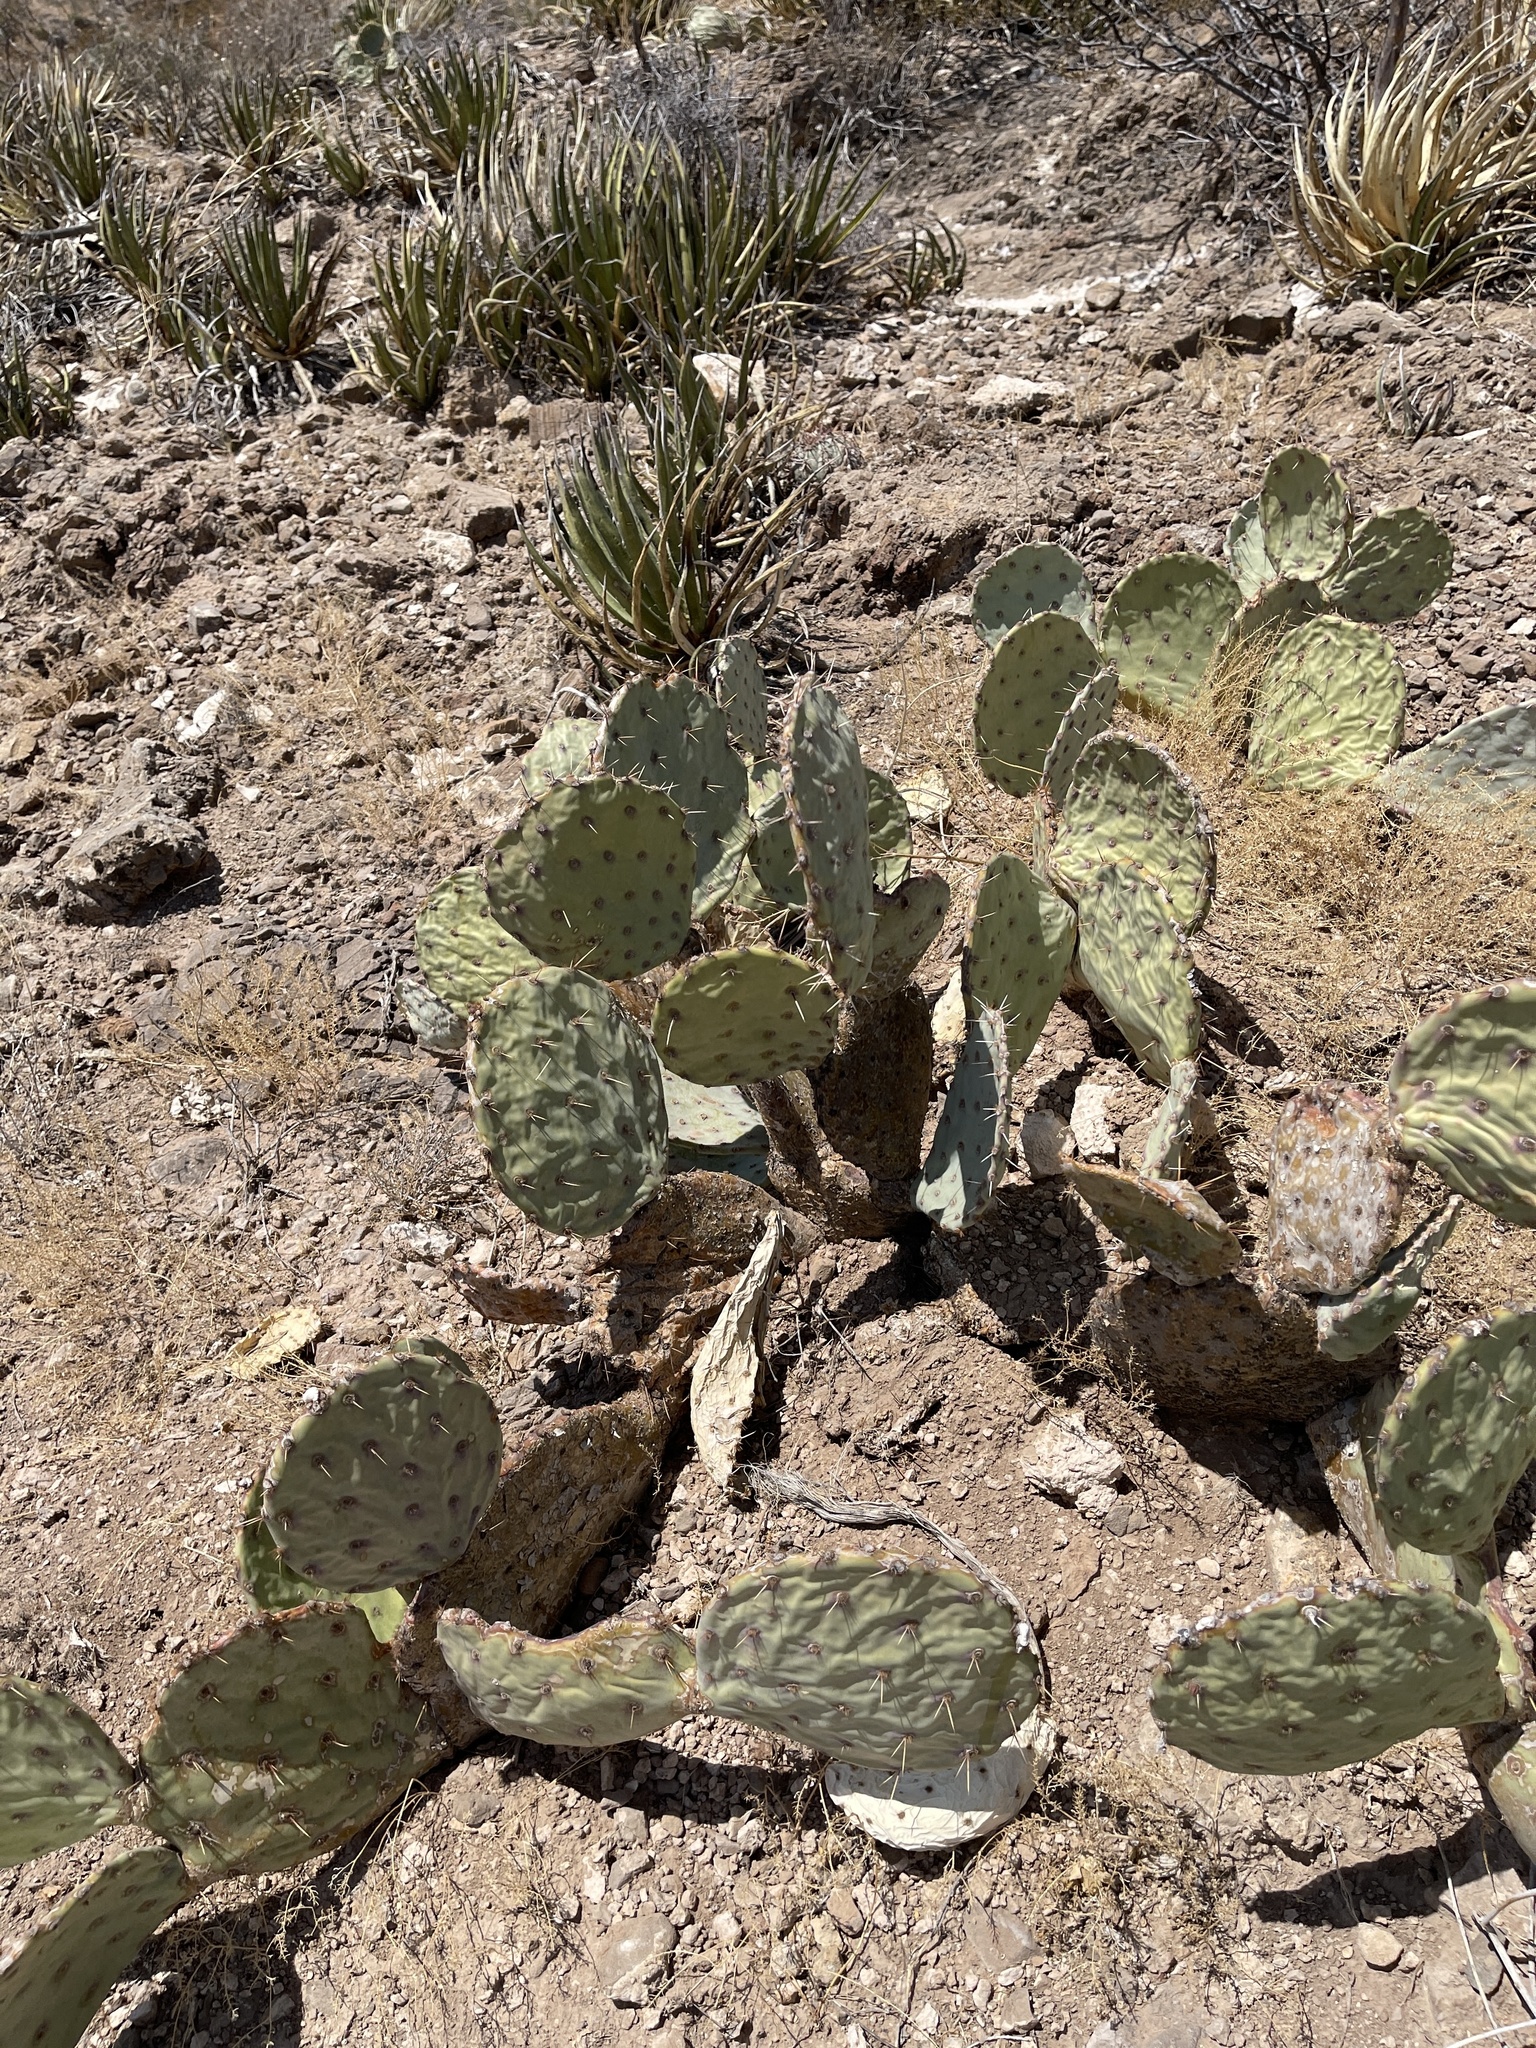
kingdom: Plantae
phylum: Tracheophyta
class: Magnoliopsida
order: Caryophyllales
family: Cactaceae
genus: Opuntia
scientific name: Opuntia engelmannii
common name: Cactus-apple
